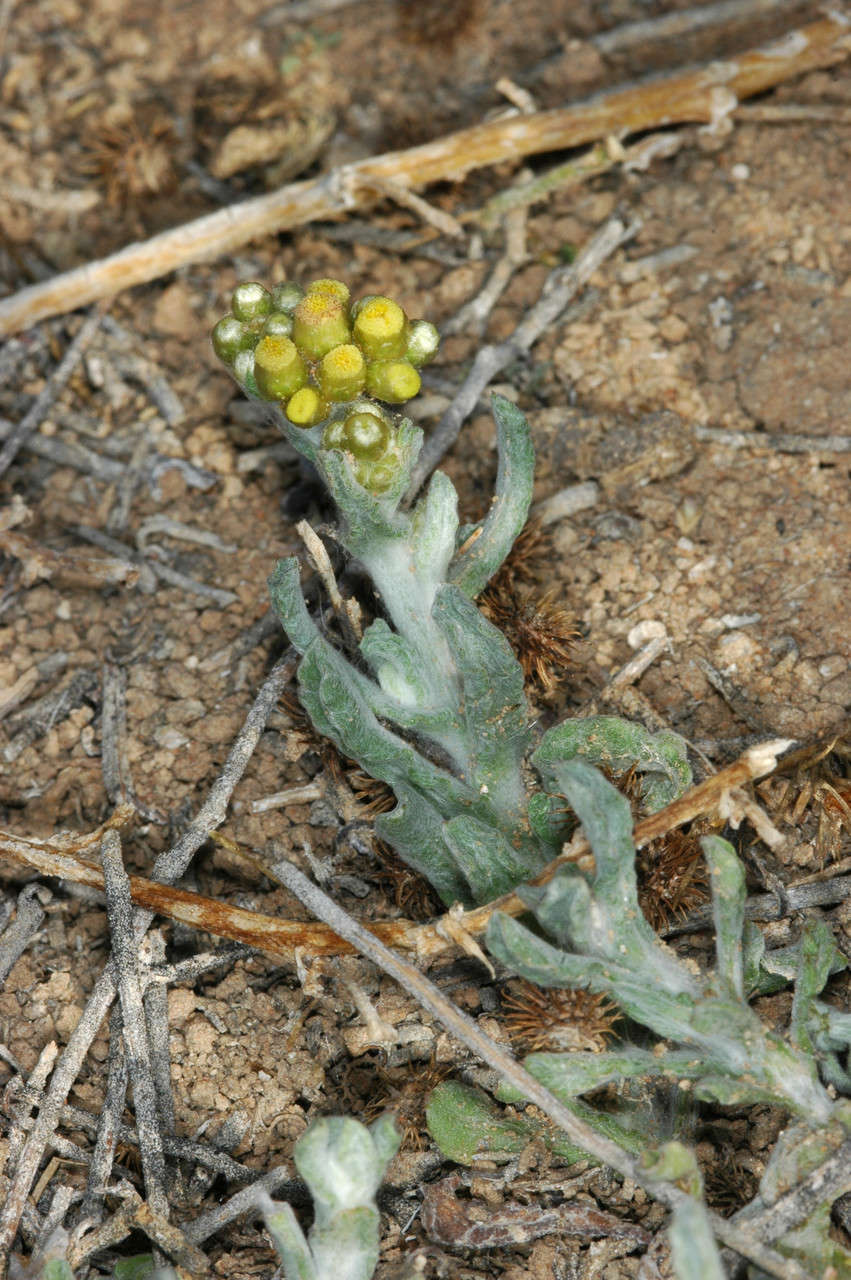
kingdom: Plantae
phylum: Tracheophyta
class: Magnoliopsida
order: Asterales
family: Asteraceae
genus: Helichrysum
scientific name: Helichrysum luteoalbum
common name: Daisy
